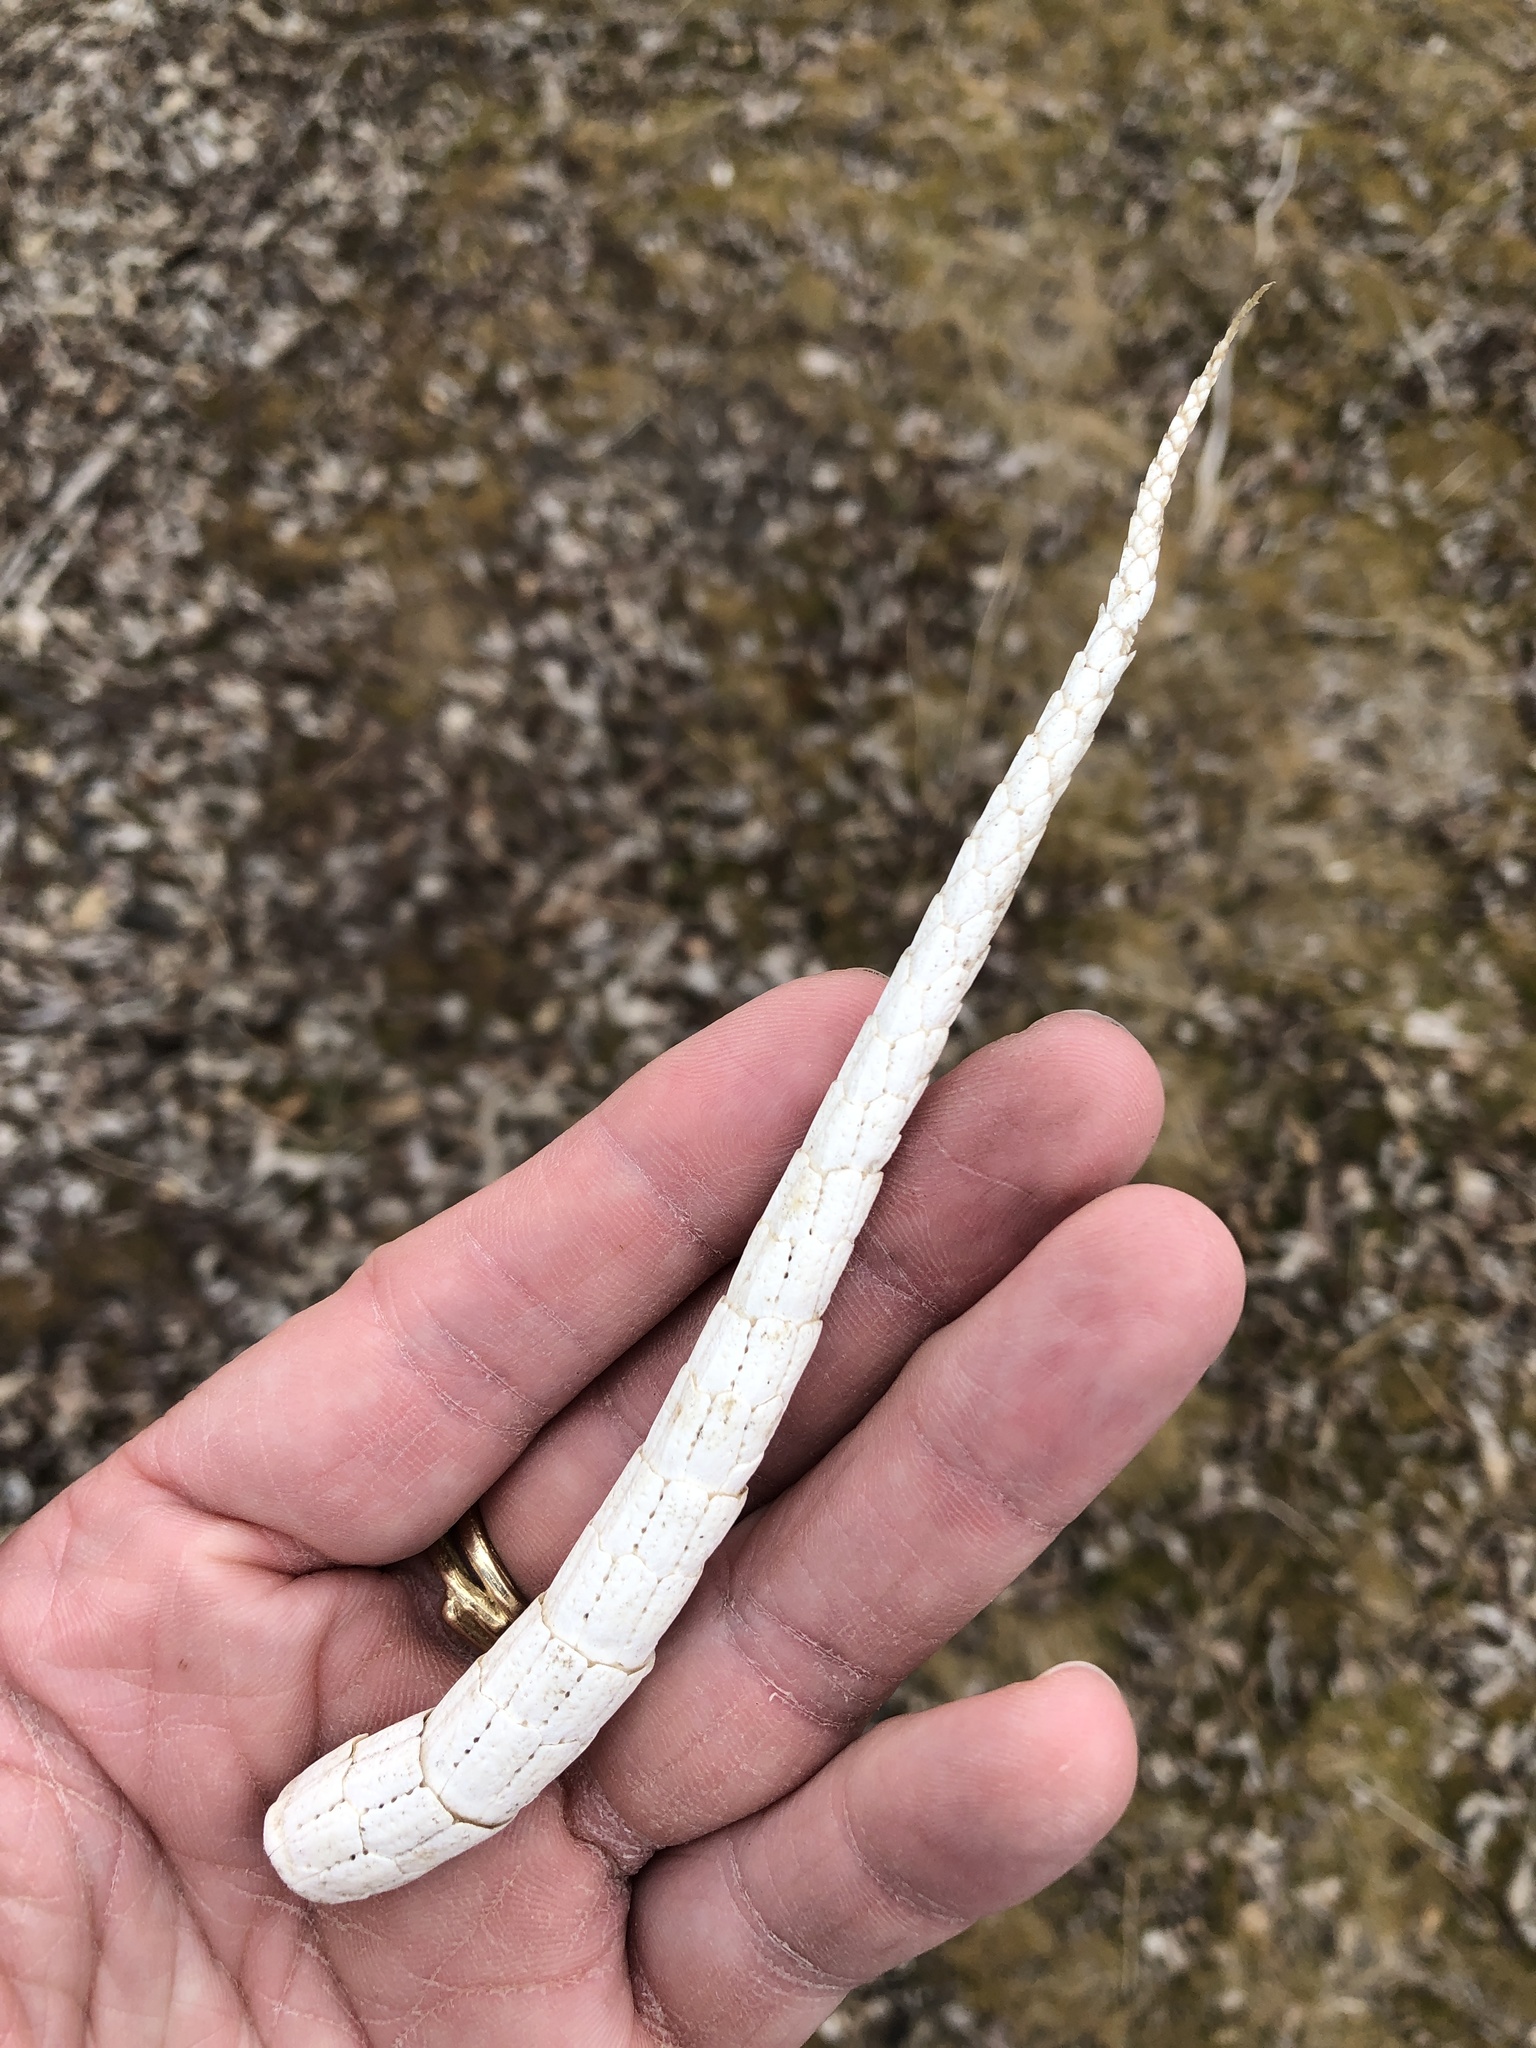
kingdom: Animalia
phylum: Chordata
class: Mammalia
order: Cingulata
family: Dasypodidae
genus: Dasypus
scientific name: Dasypus novemcinctus
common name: Nine-banded armadillo
